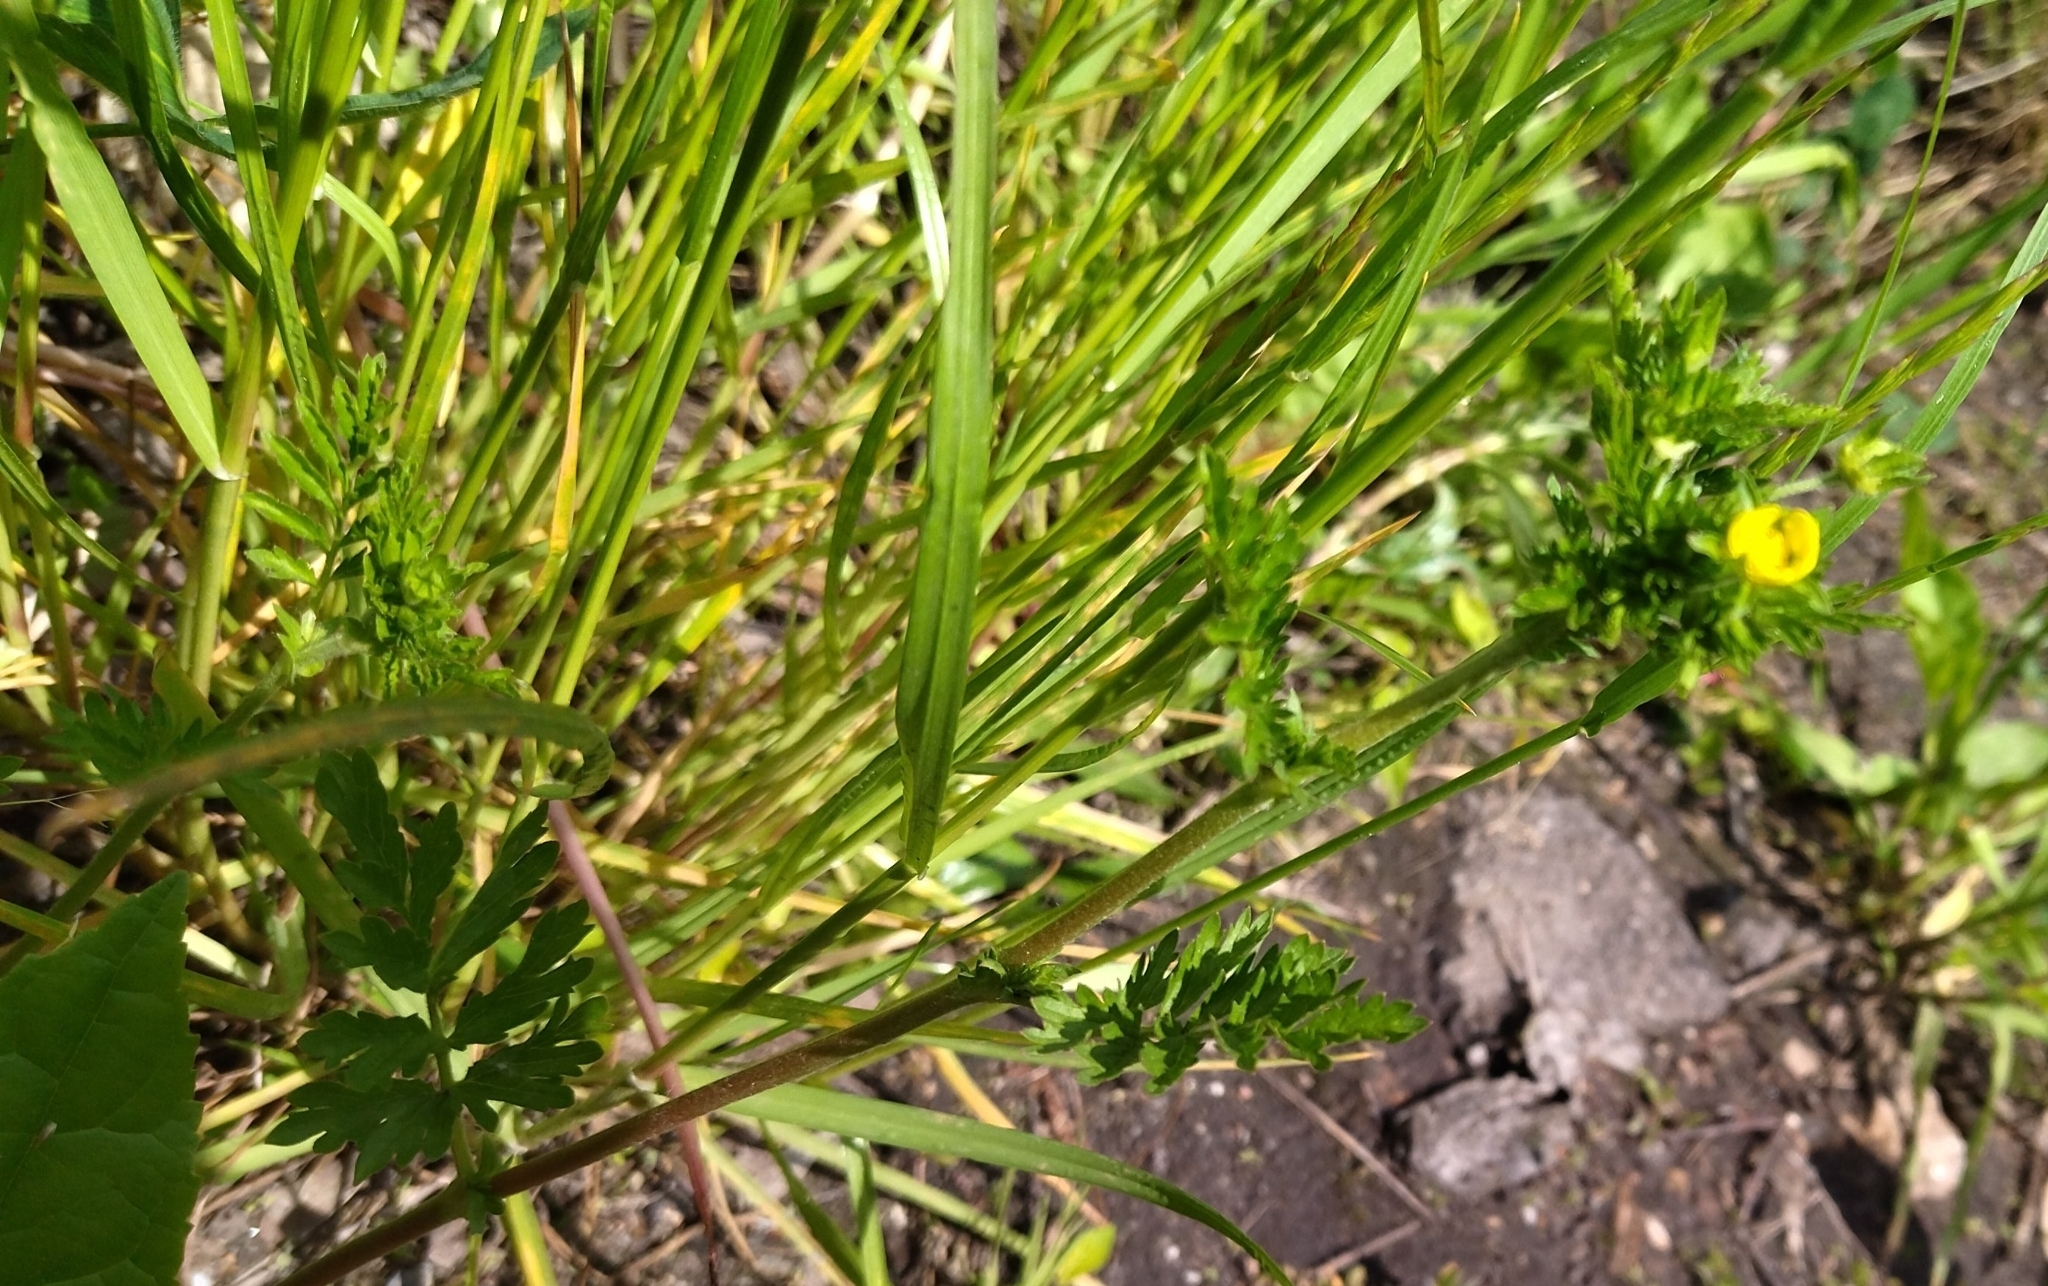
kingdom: Plantae
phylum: Tracheophyta
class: Magnoliopsida
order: Rosales
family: Rosaceae
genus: Potentilla
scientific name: Potentilla supina
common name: Prostrate cinquefoil
